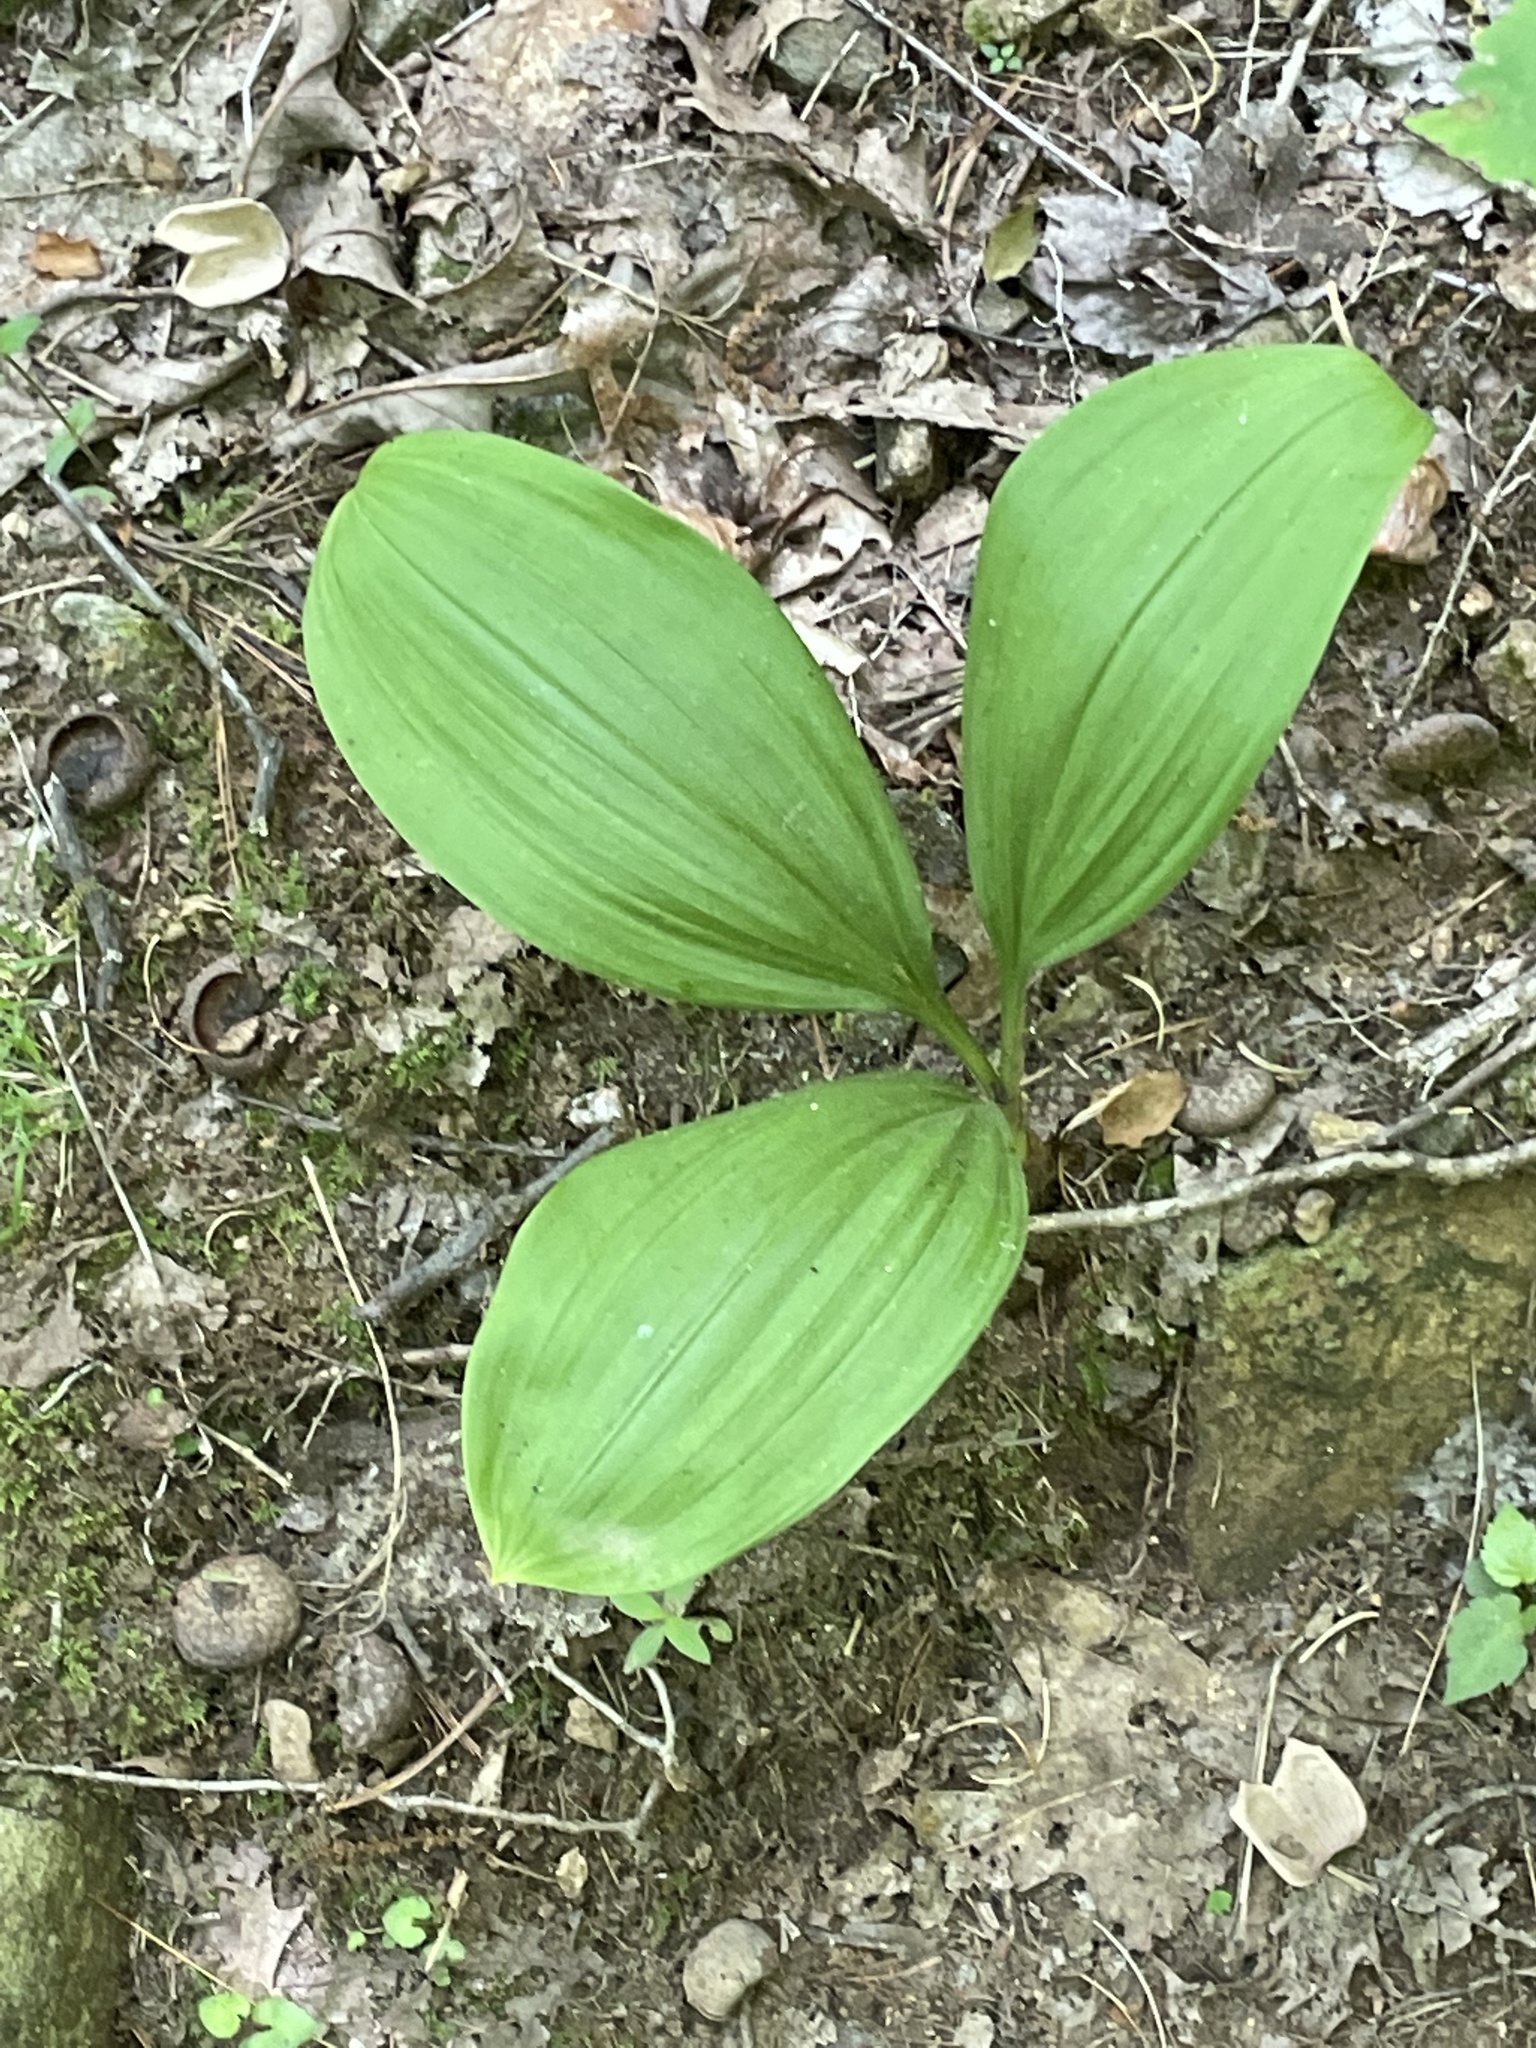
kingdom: Plantae
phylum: Tracheophyta
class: Liliopsida
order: Liliales
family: Melanthiaceae
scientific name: Melanthiaceae
